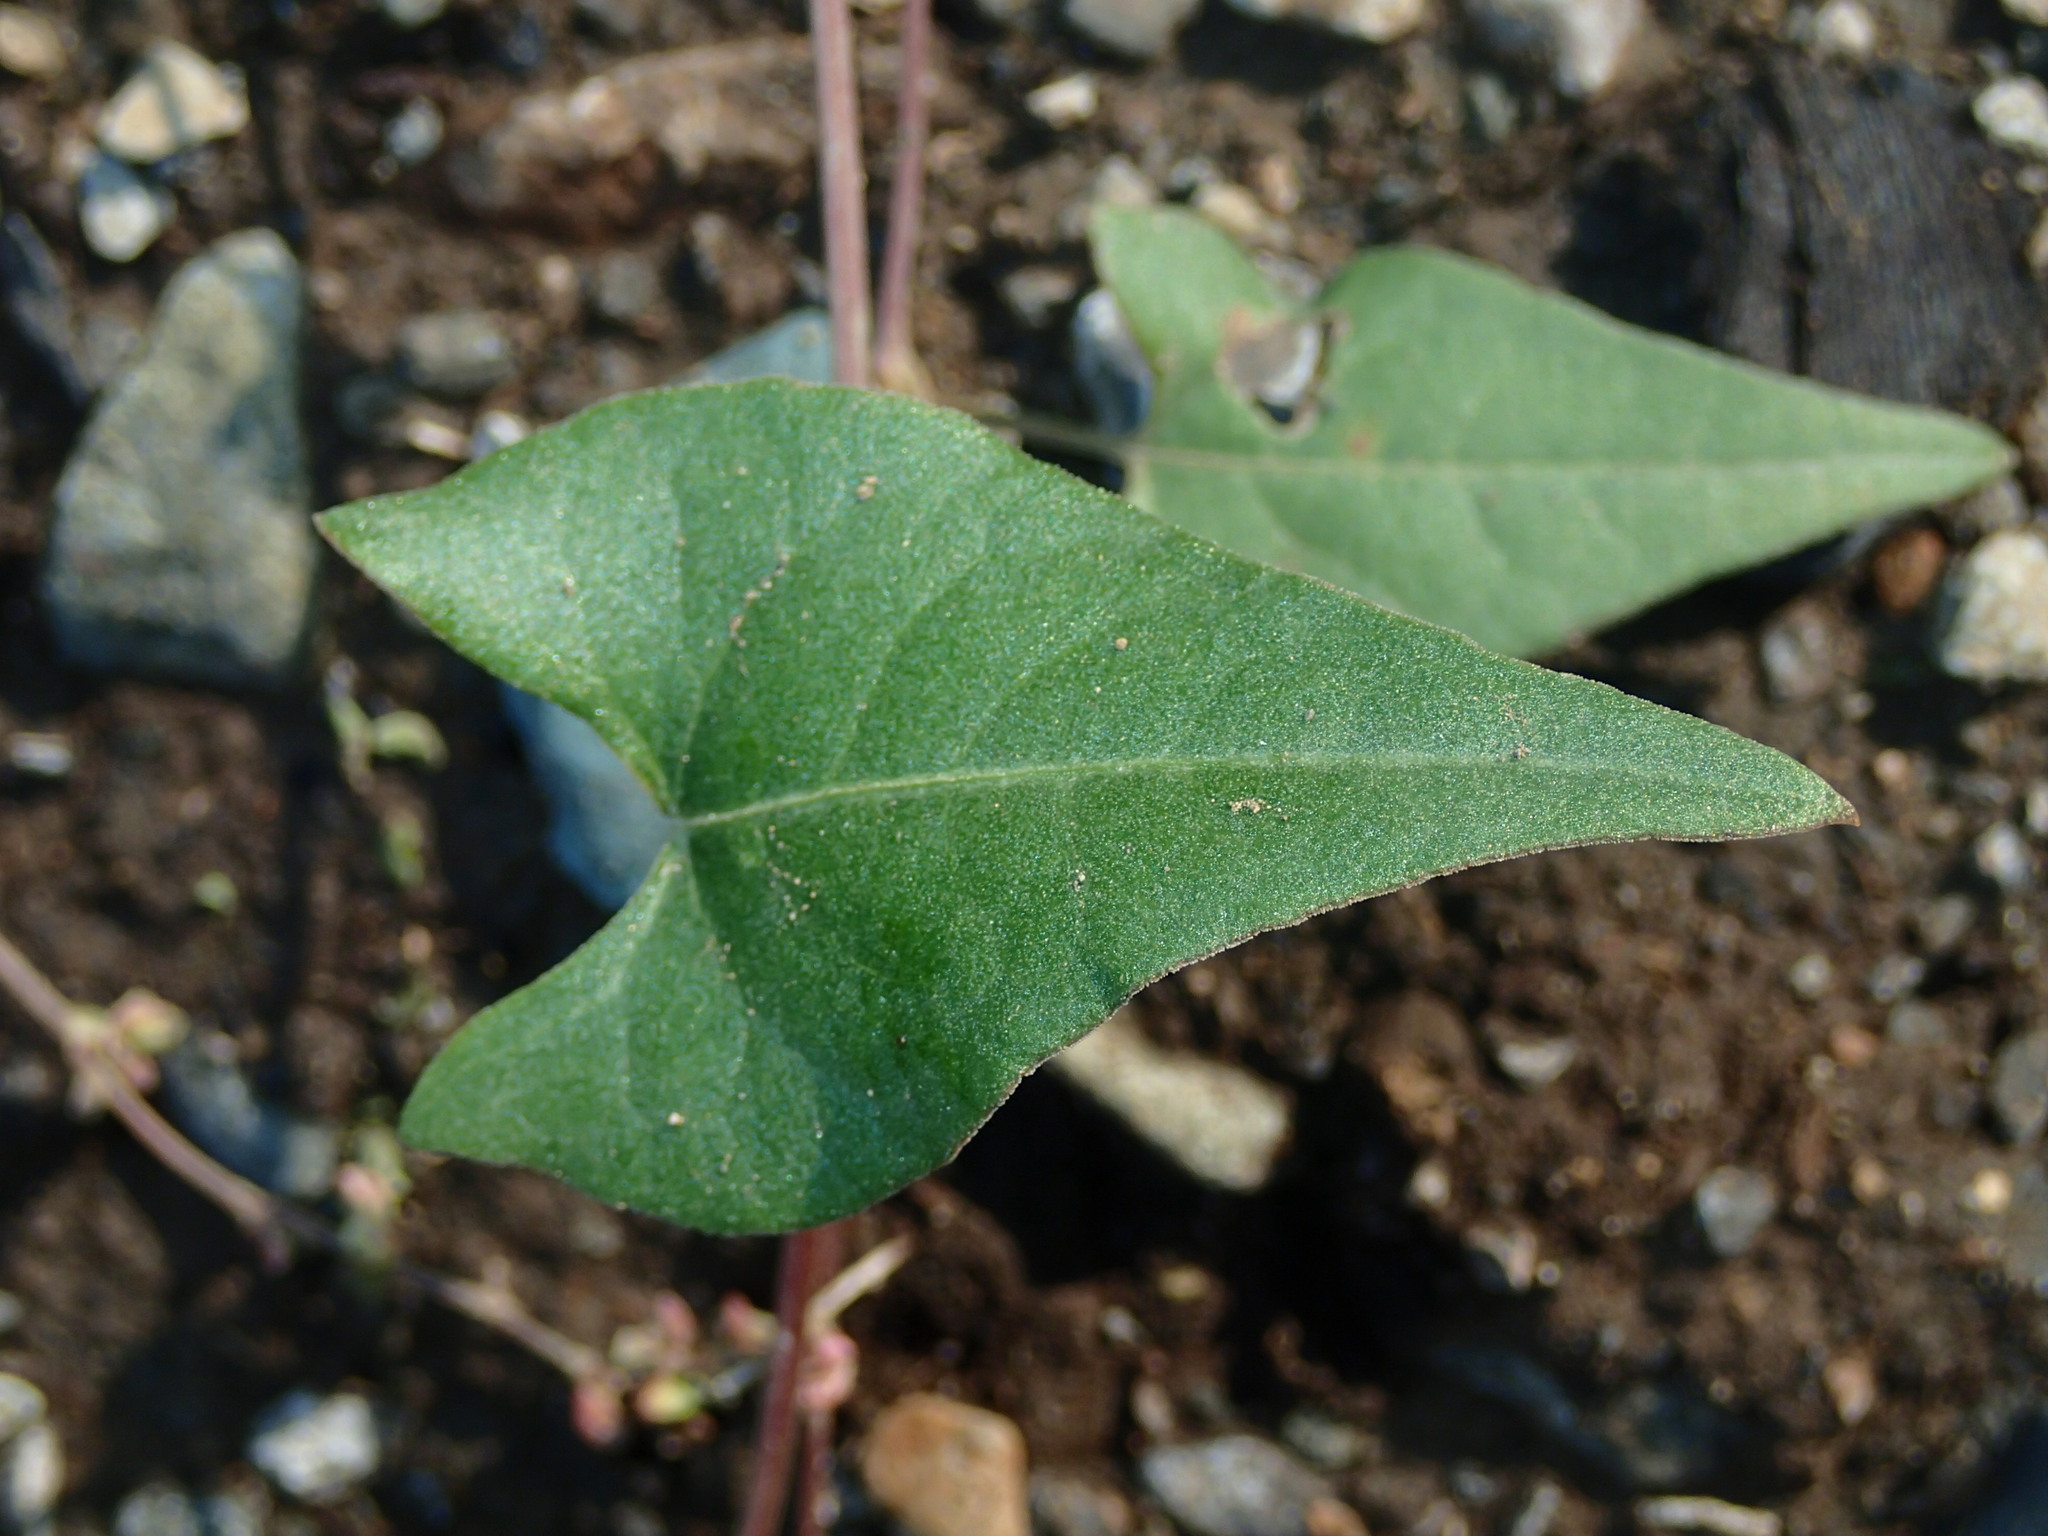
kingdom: Plantae
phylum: Tracheophyta
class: Magnoliopsida
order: Caryophyllales
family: Polygonaceae
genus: Fallopia
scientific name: Fallopia convolvulus
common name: Black bindweed
